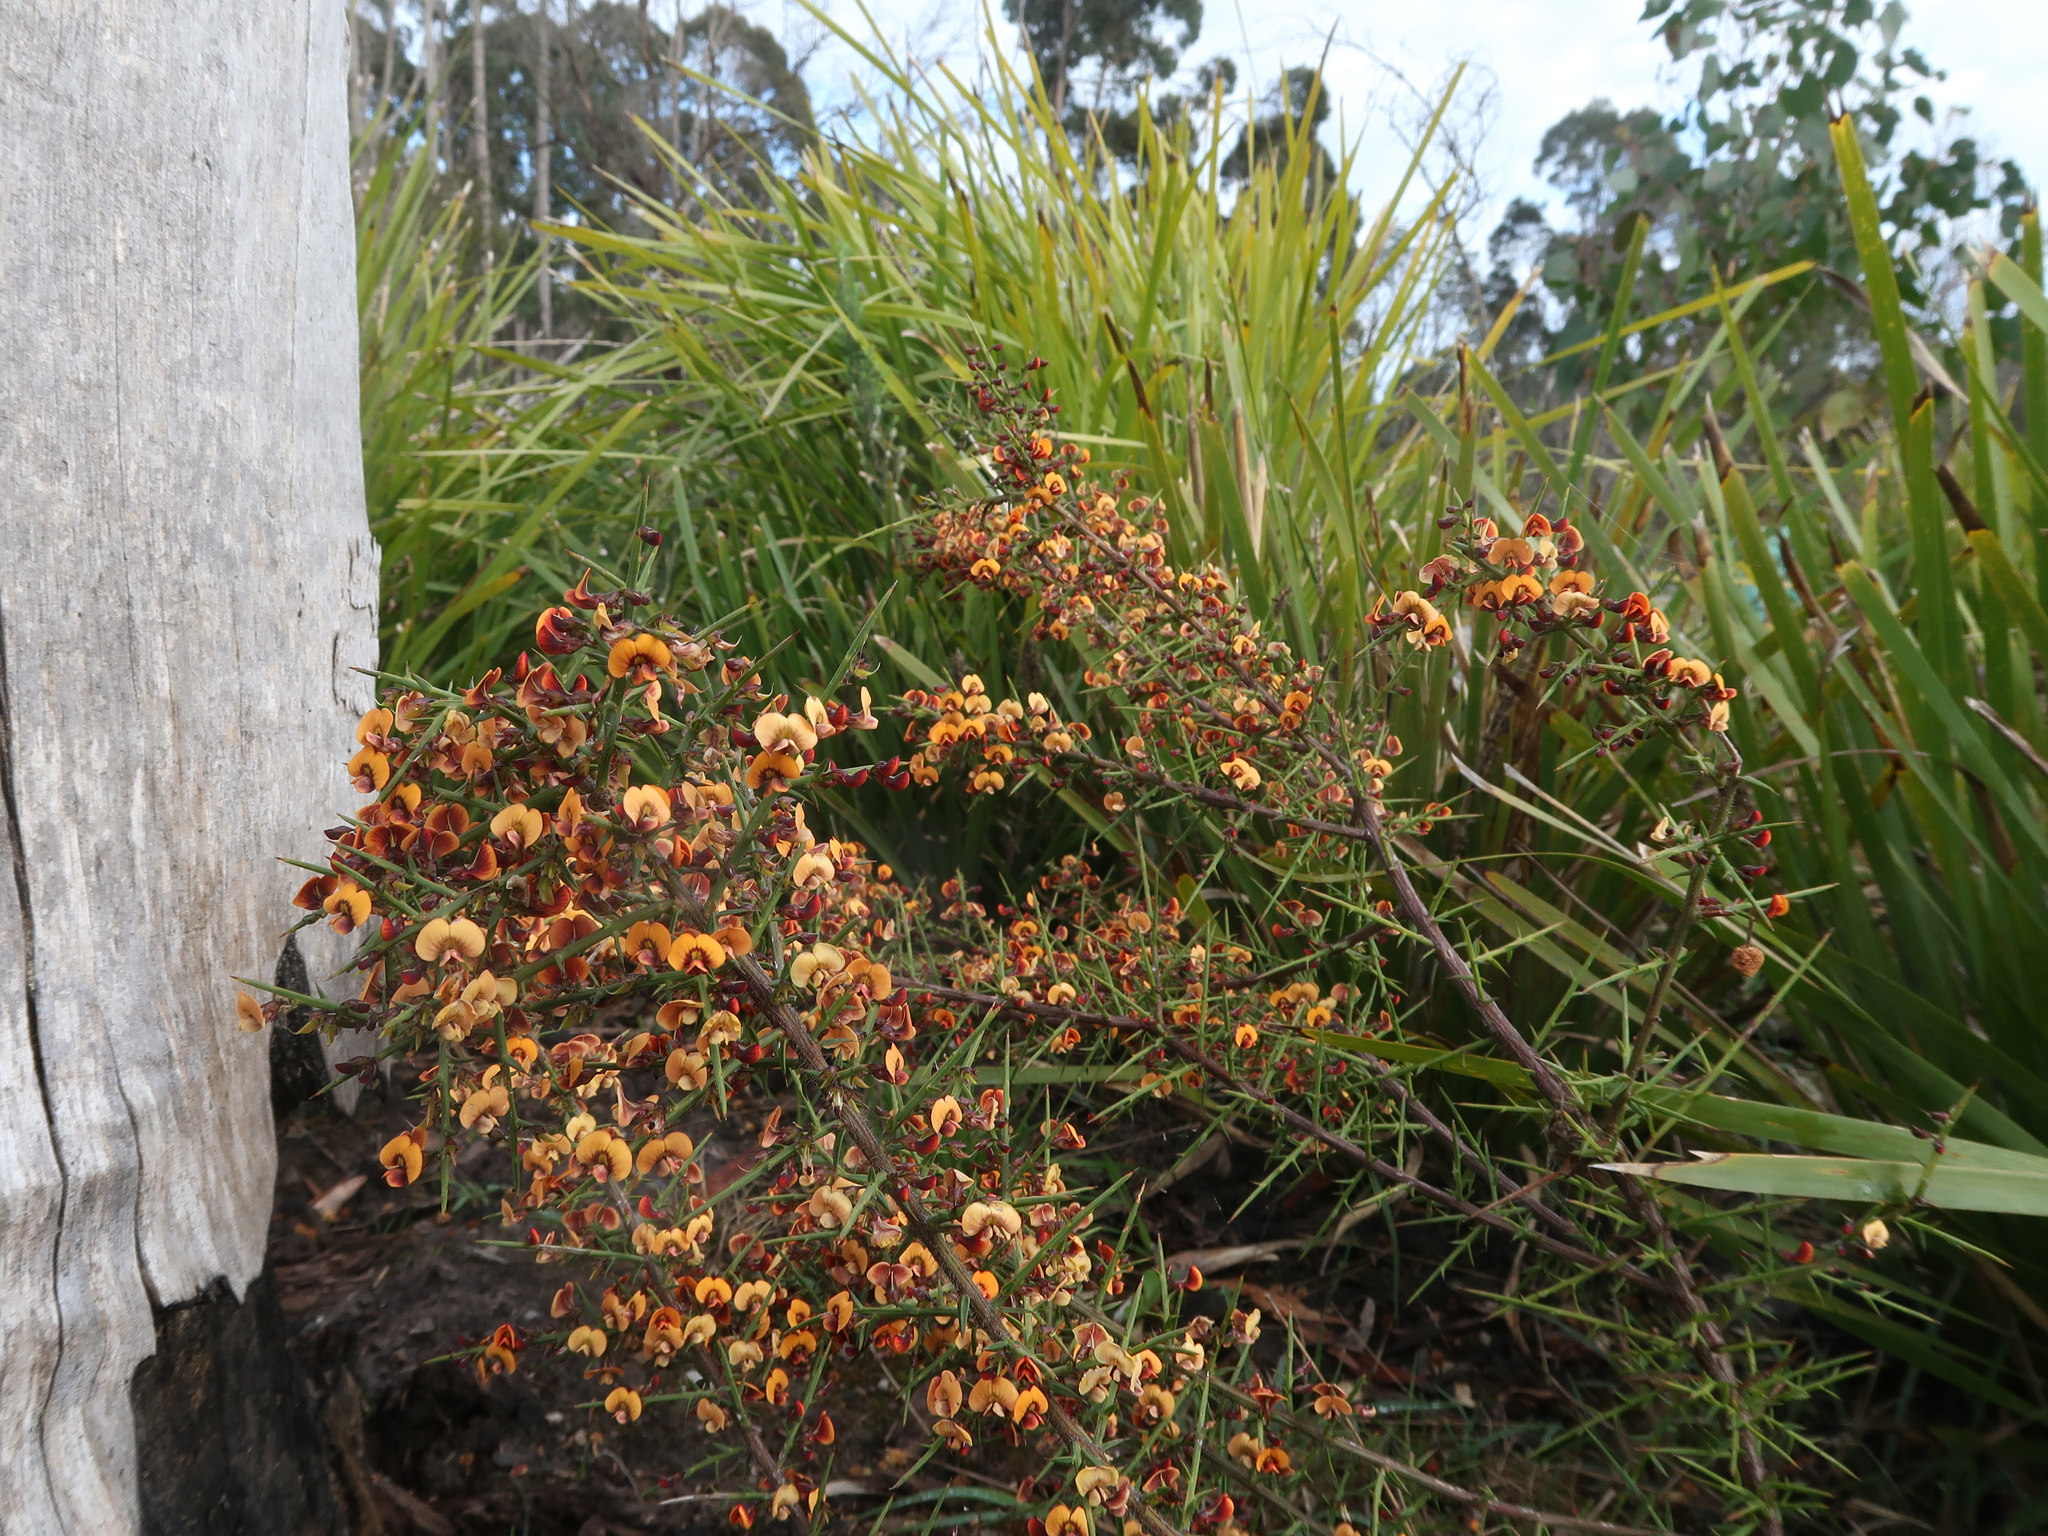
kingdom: Plantae
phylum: Tracheophyta
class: Magnoliopsida
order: Fabales
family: Fabaceae
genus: Daviesia
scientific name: Daviesia ulicifolia
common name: Gorse bitter-pea
